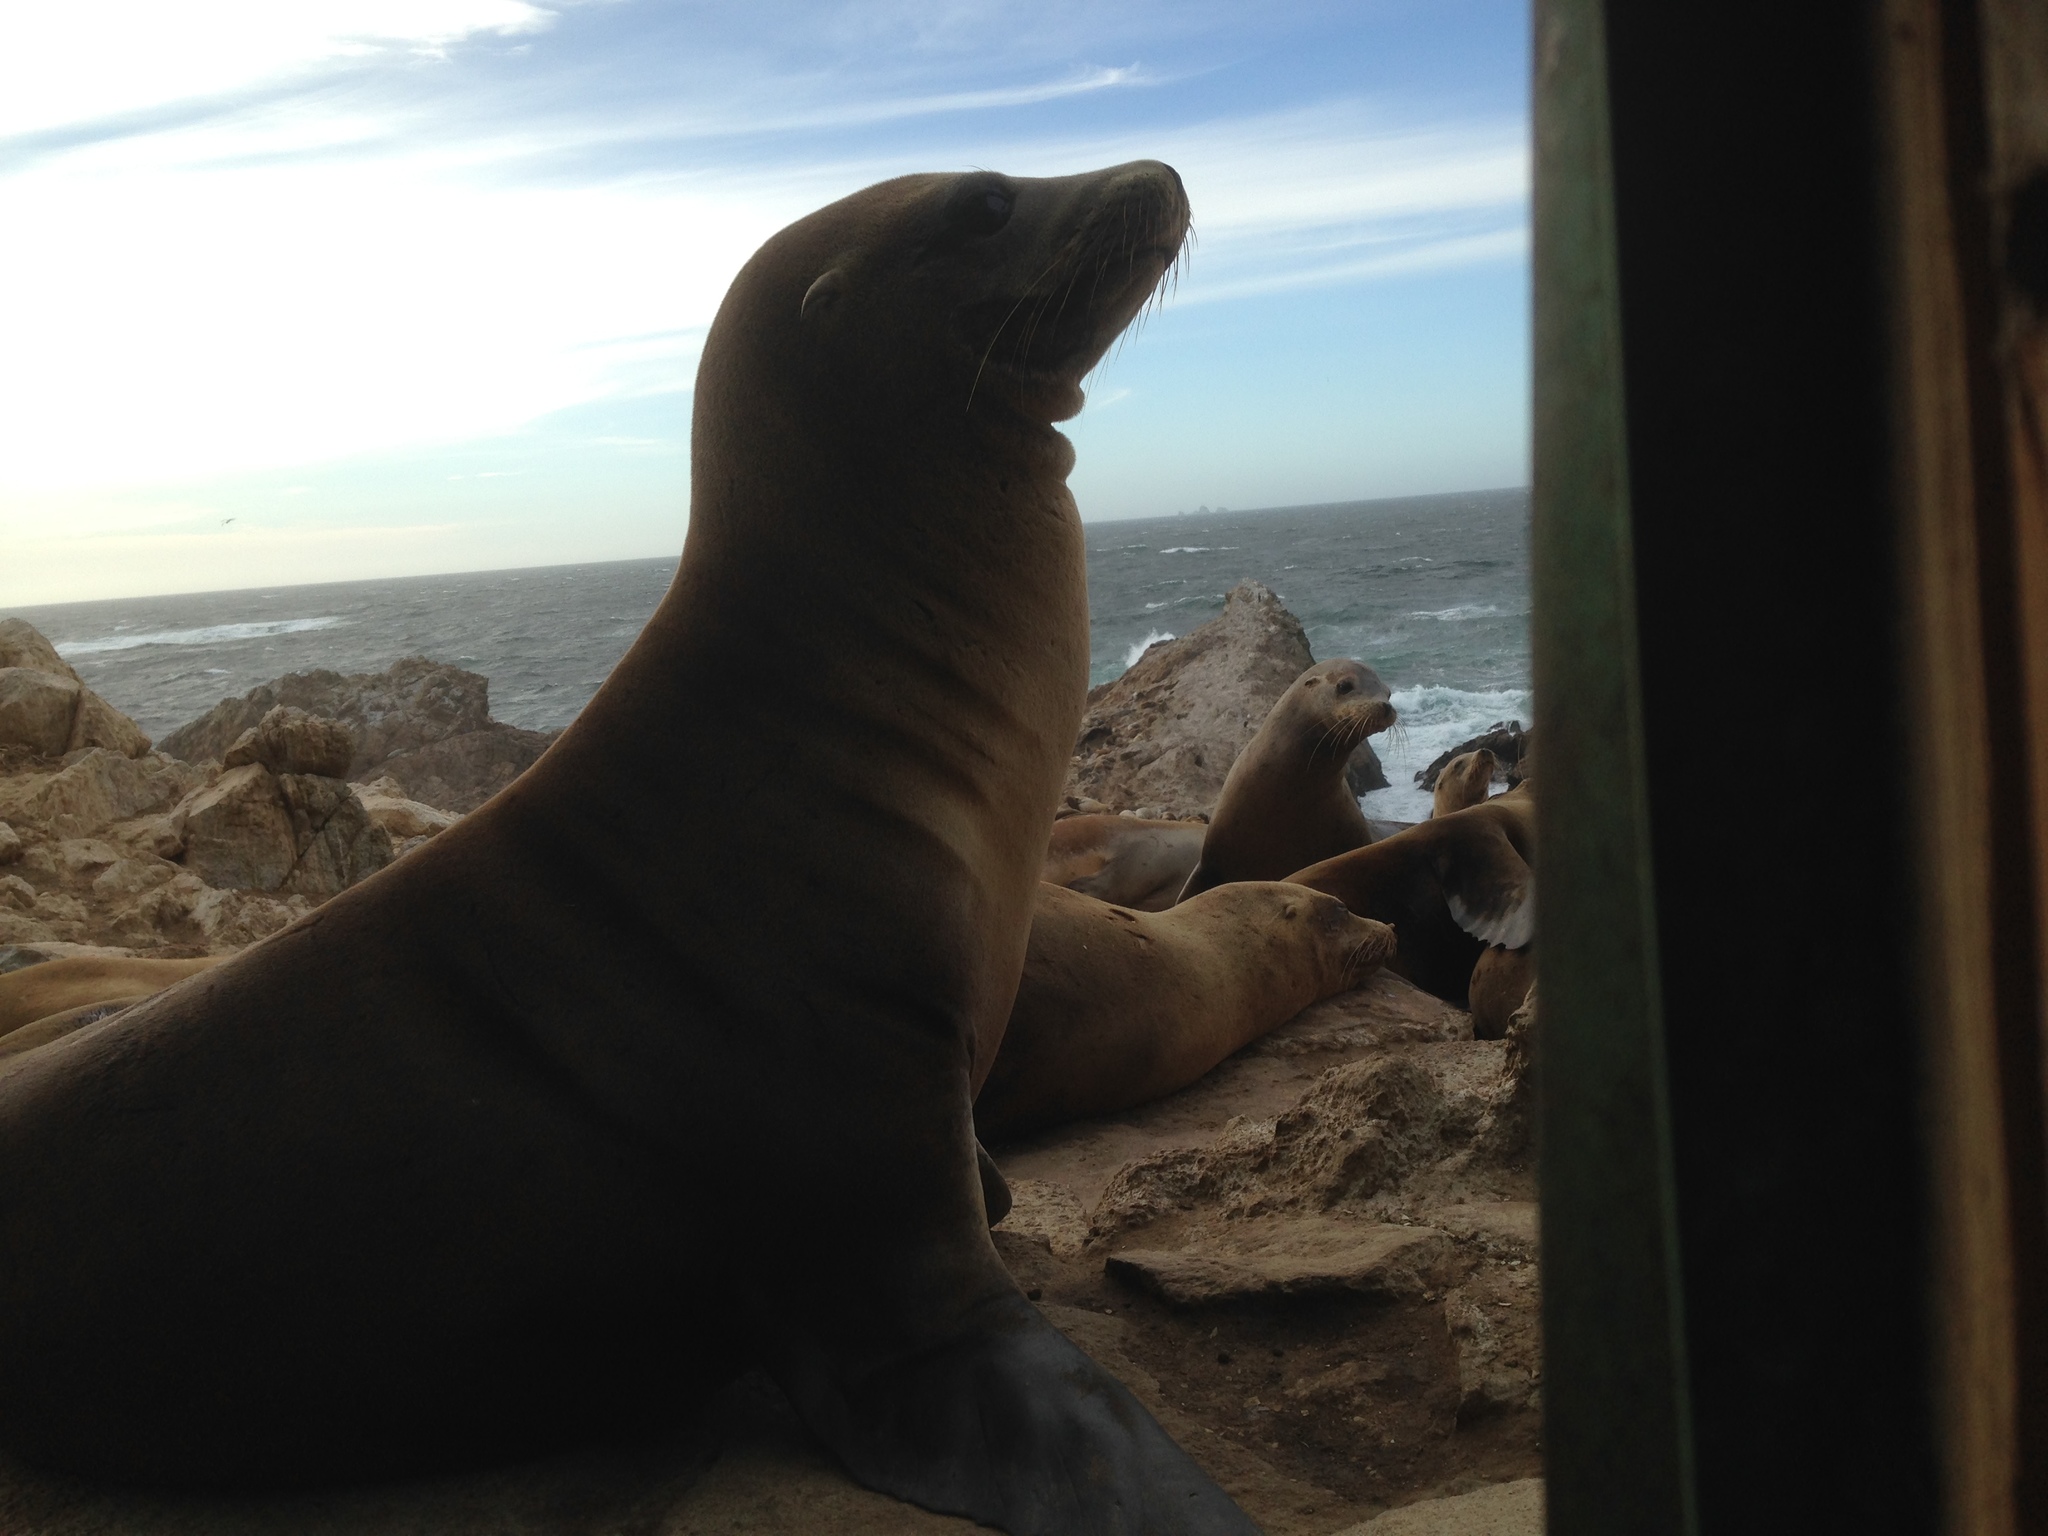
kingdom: Animalia
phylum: Chordata
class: Mammalia
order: Carnivora
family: Otariidae
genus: Zalophus
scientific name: Zalophus californianus
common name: California sea lion
